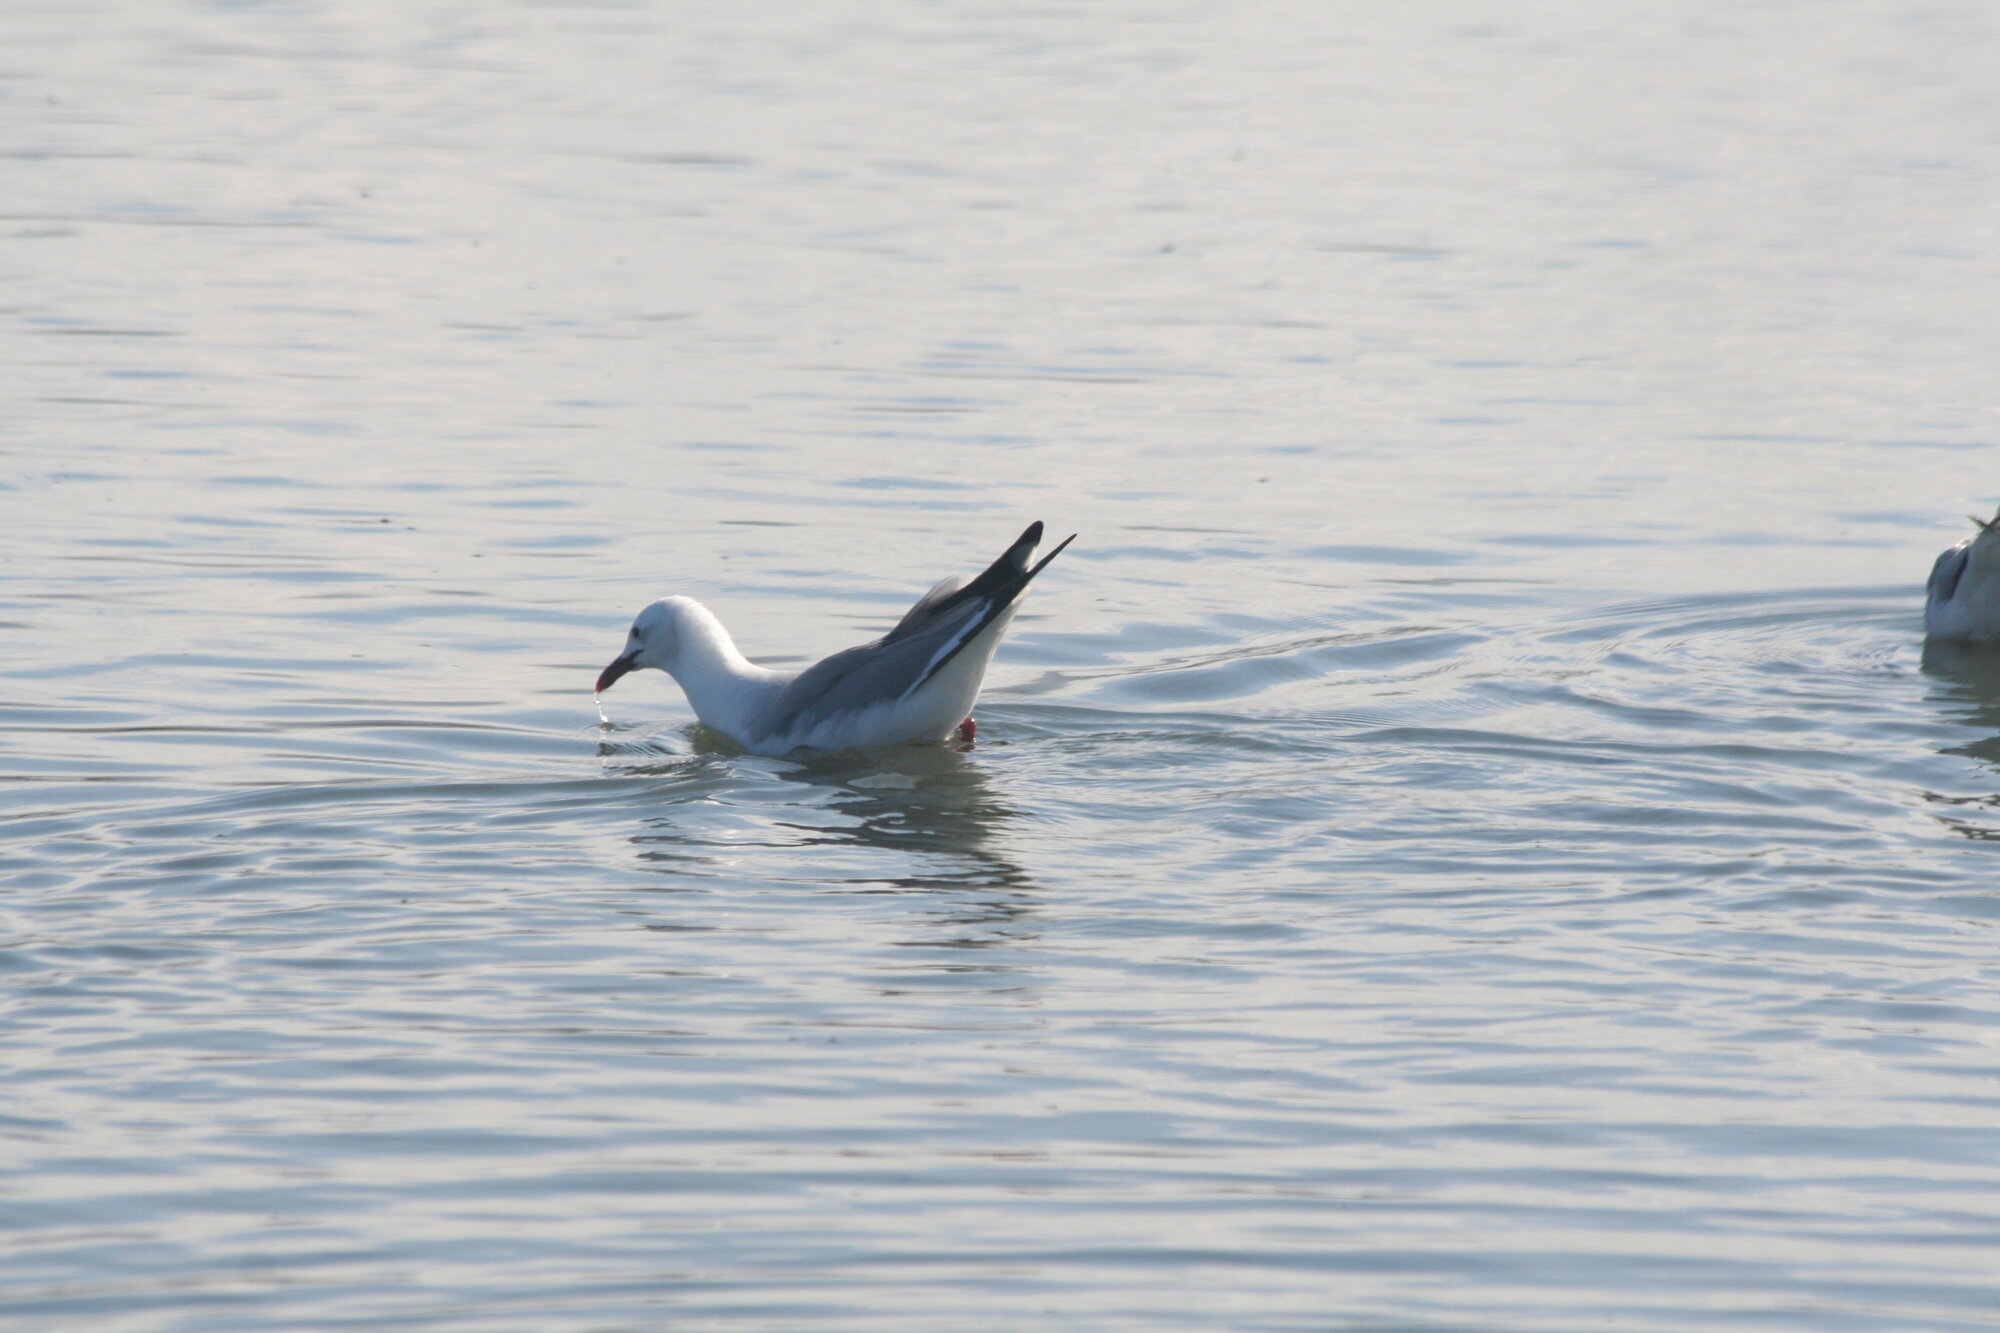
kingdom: Animalia
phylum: Chordata
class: Aves
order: Charadriiformes
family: Laridae
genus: Chroicocephalus
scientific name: Chroicocephalus hartlaubii
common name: Hartlaub's gull
